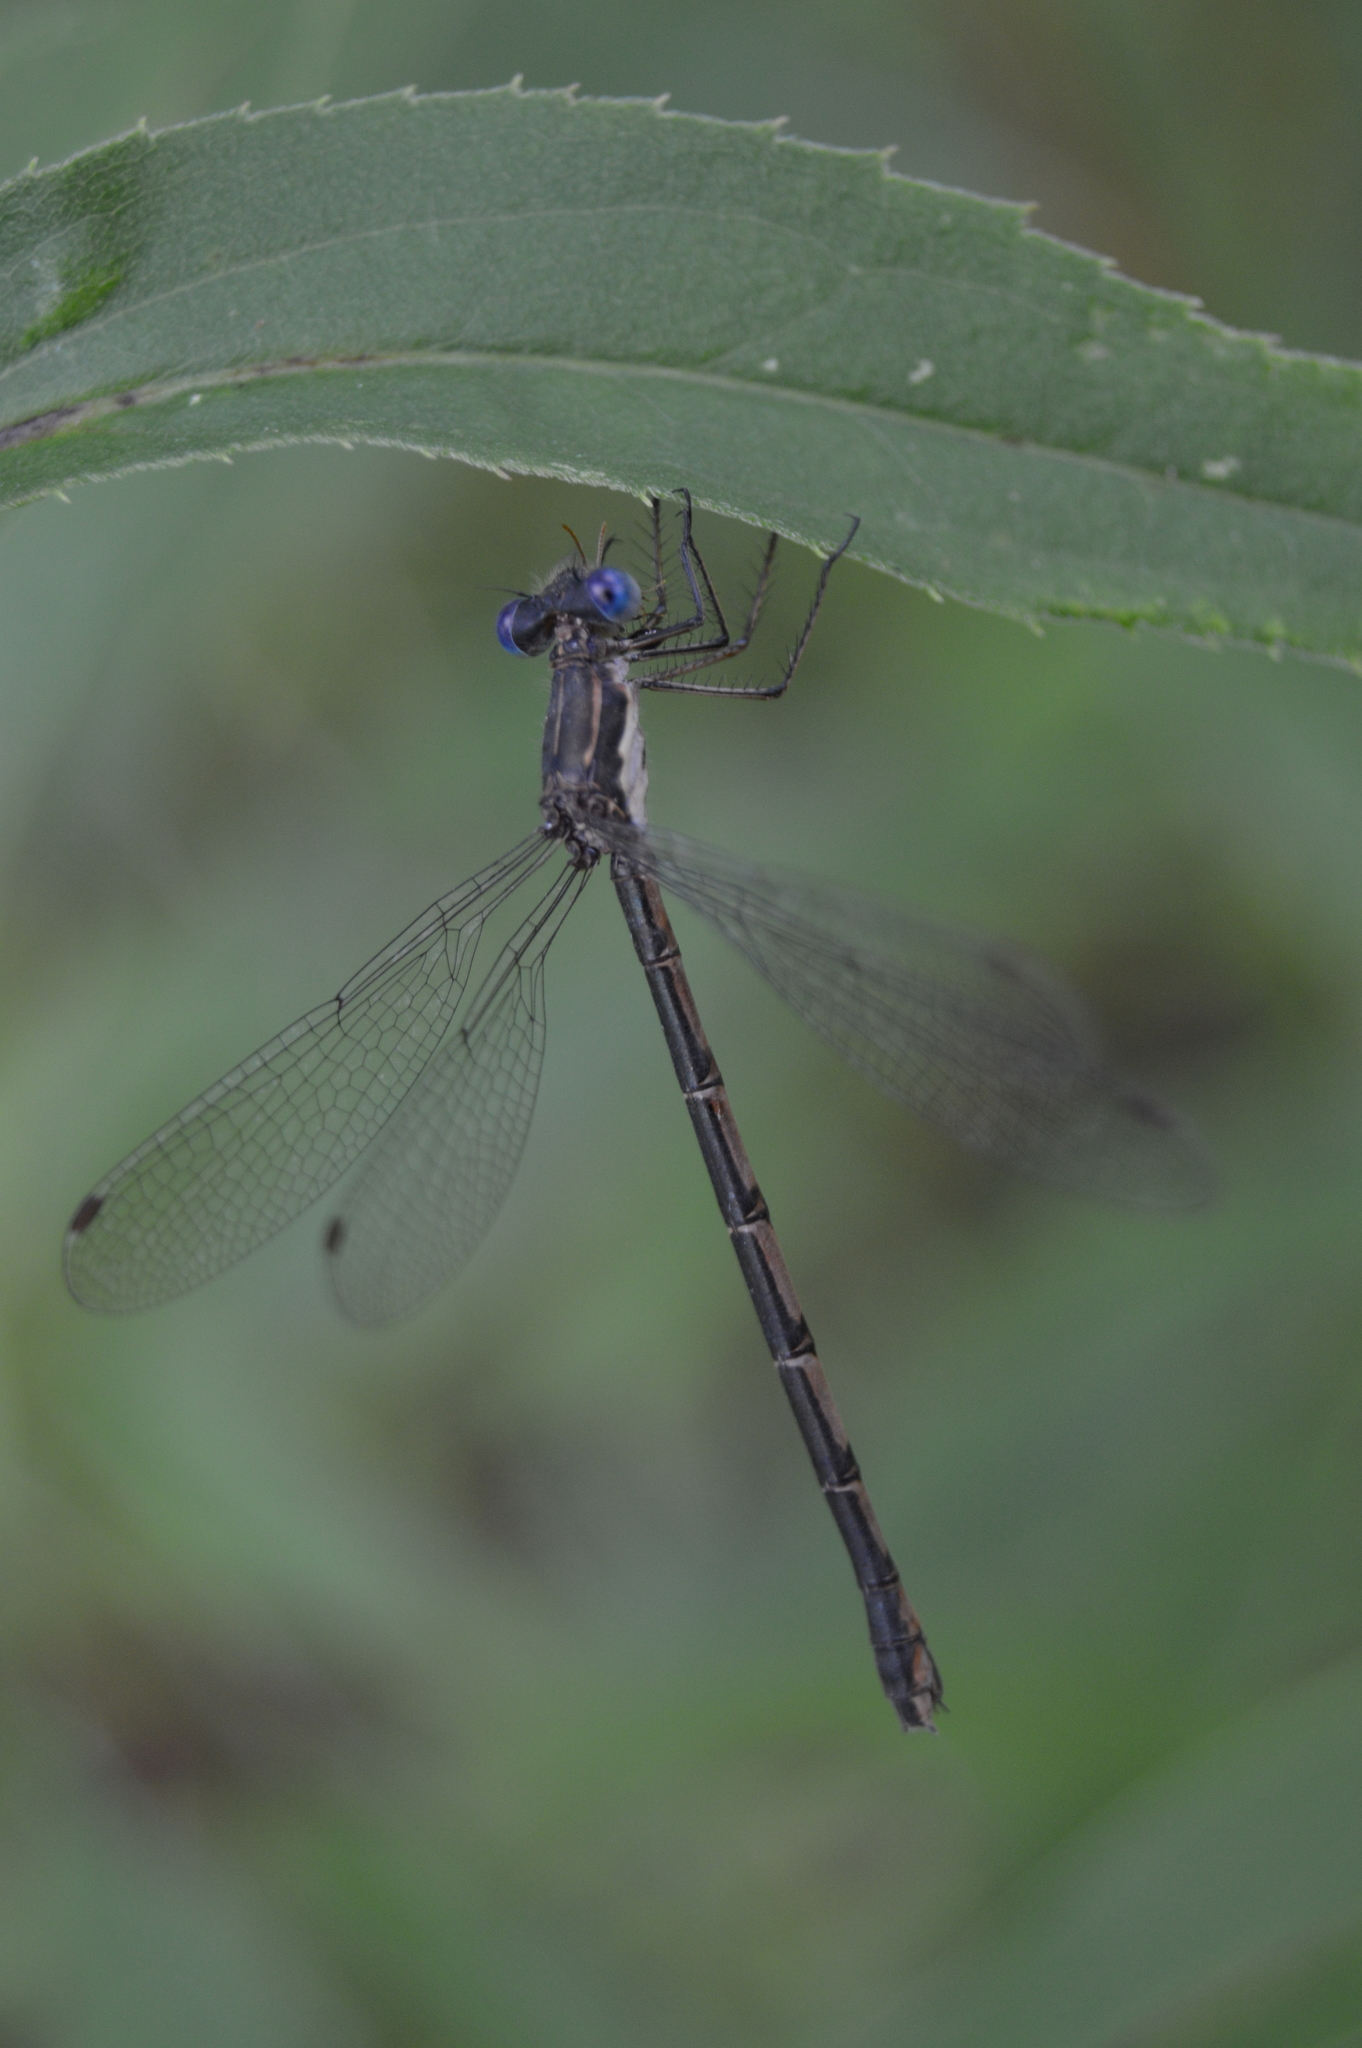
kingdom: Animalia
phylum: Arthropoda
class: Insecta
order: Odonata
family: Lestidae
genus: Lestes
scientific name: Lestes congener
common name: Spotted spreadwing
